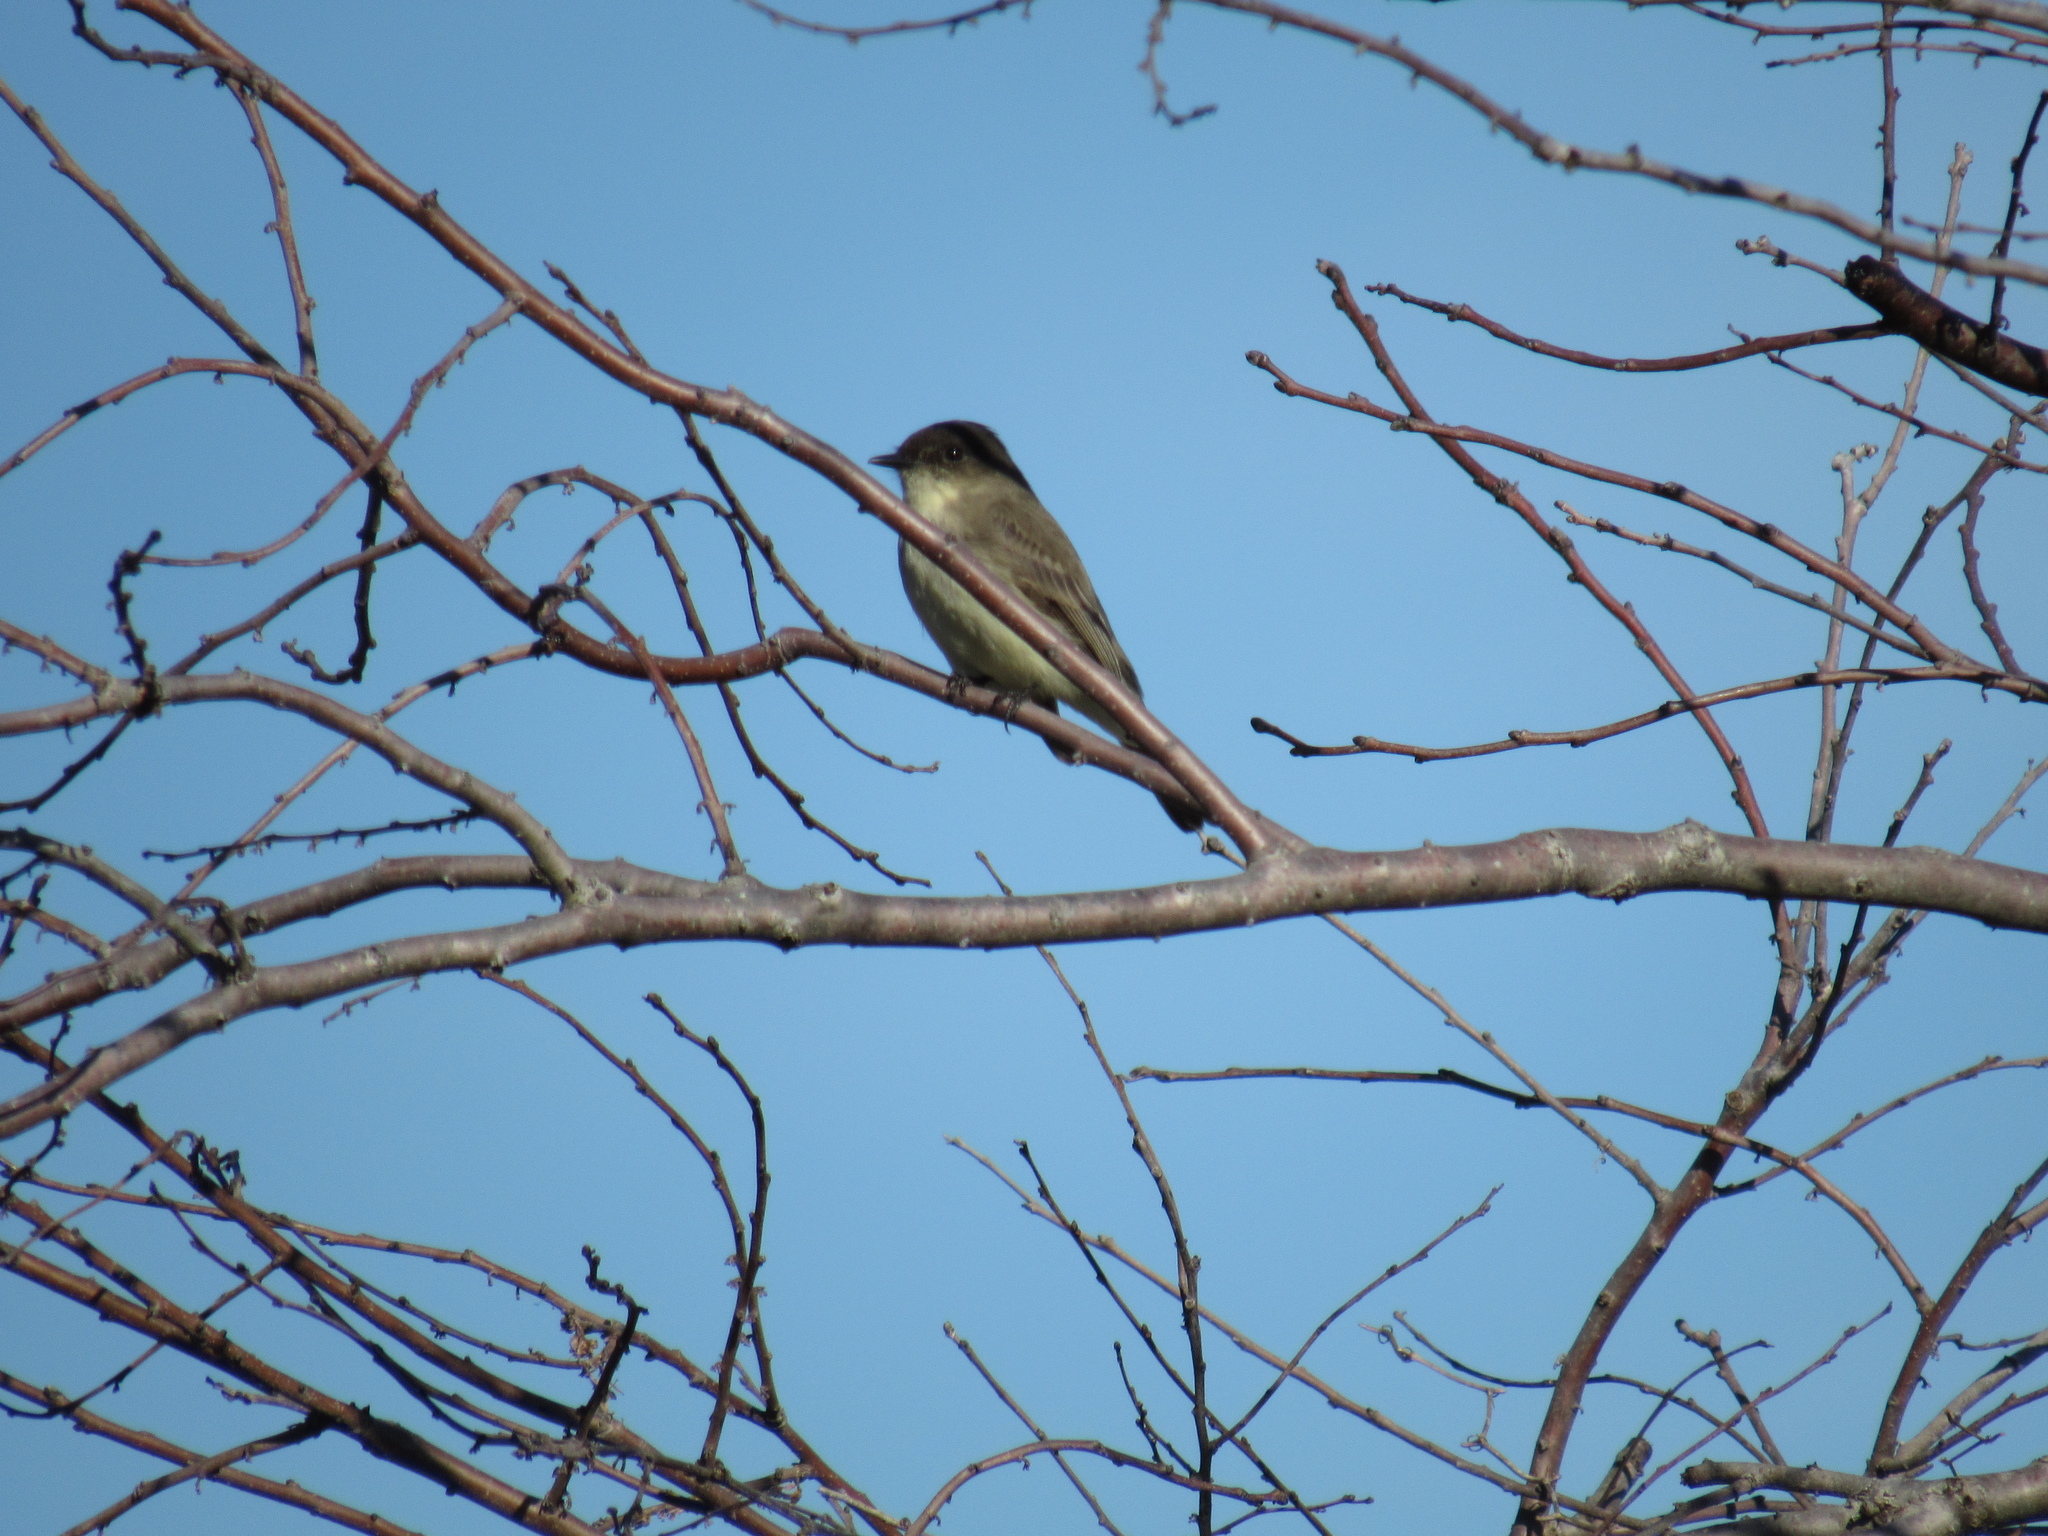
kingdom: Animalia
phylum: Chordata
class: Aves
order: Passeriformes
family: Tyrannidae
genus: Sayornis
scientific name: Sayornis phoebe
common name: Eastern phoebe
